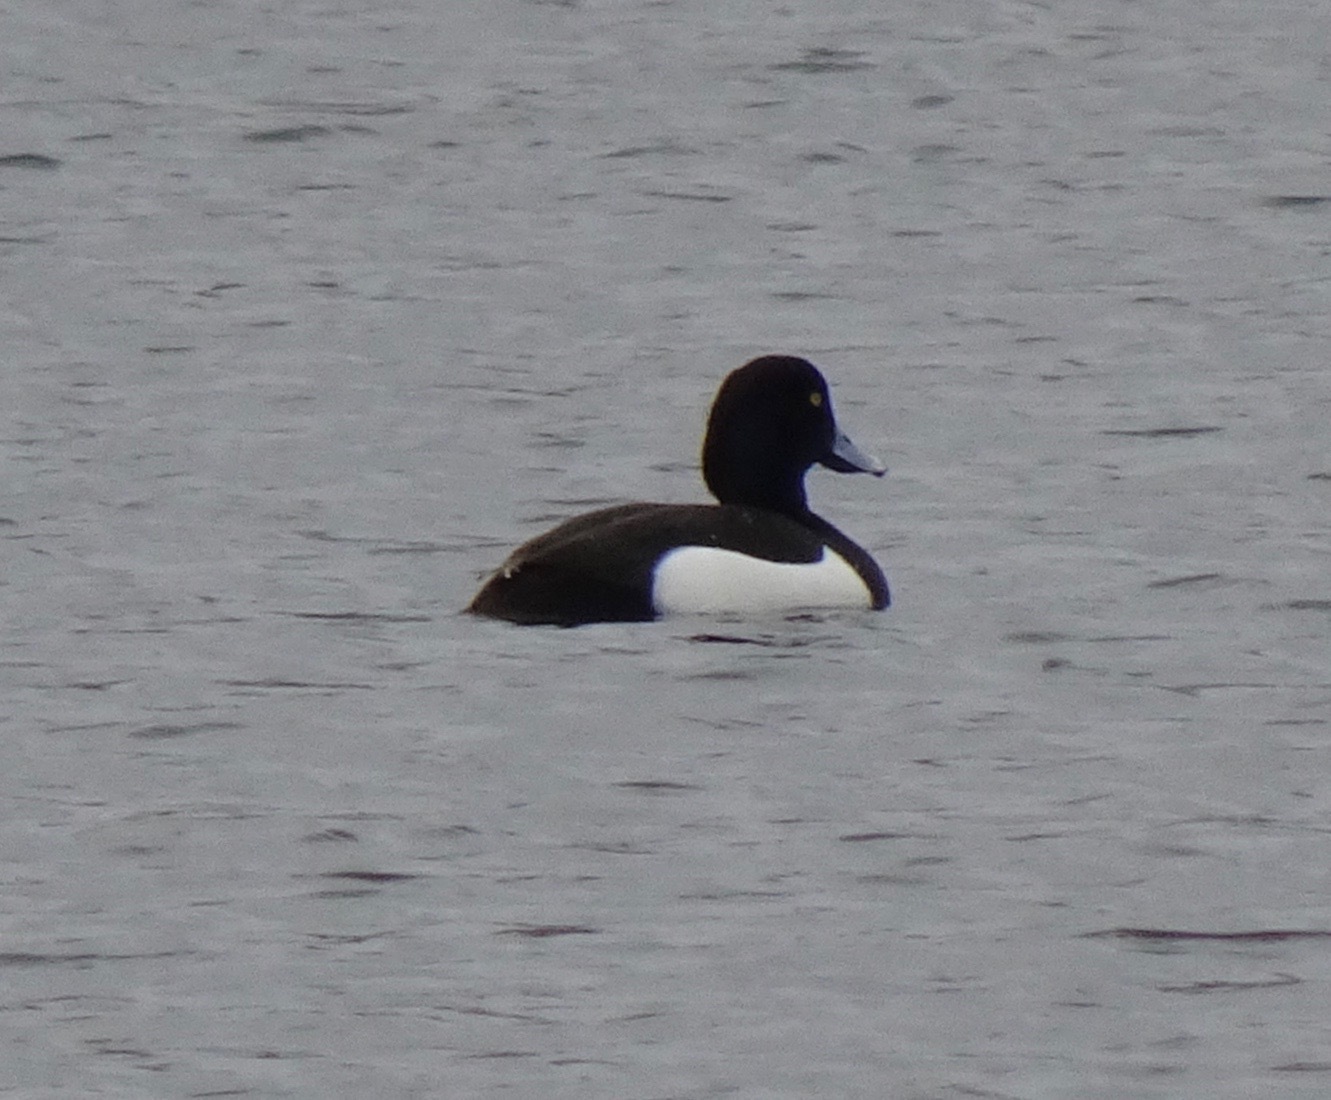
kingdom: Animalia
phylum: Chordata
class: Aves
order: Anseriformes
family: Anatidae
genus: Aythya
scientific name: Aythya fuligula
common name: Tufted duck
